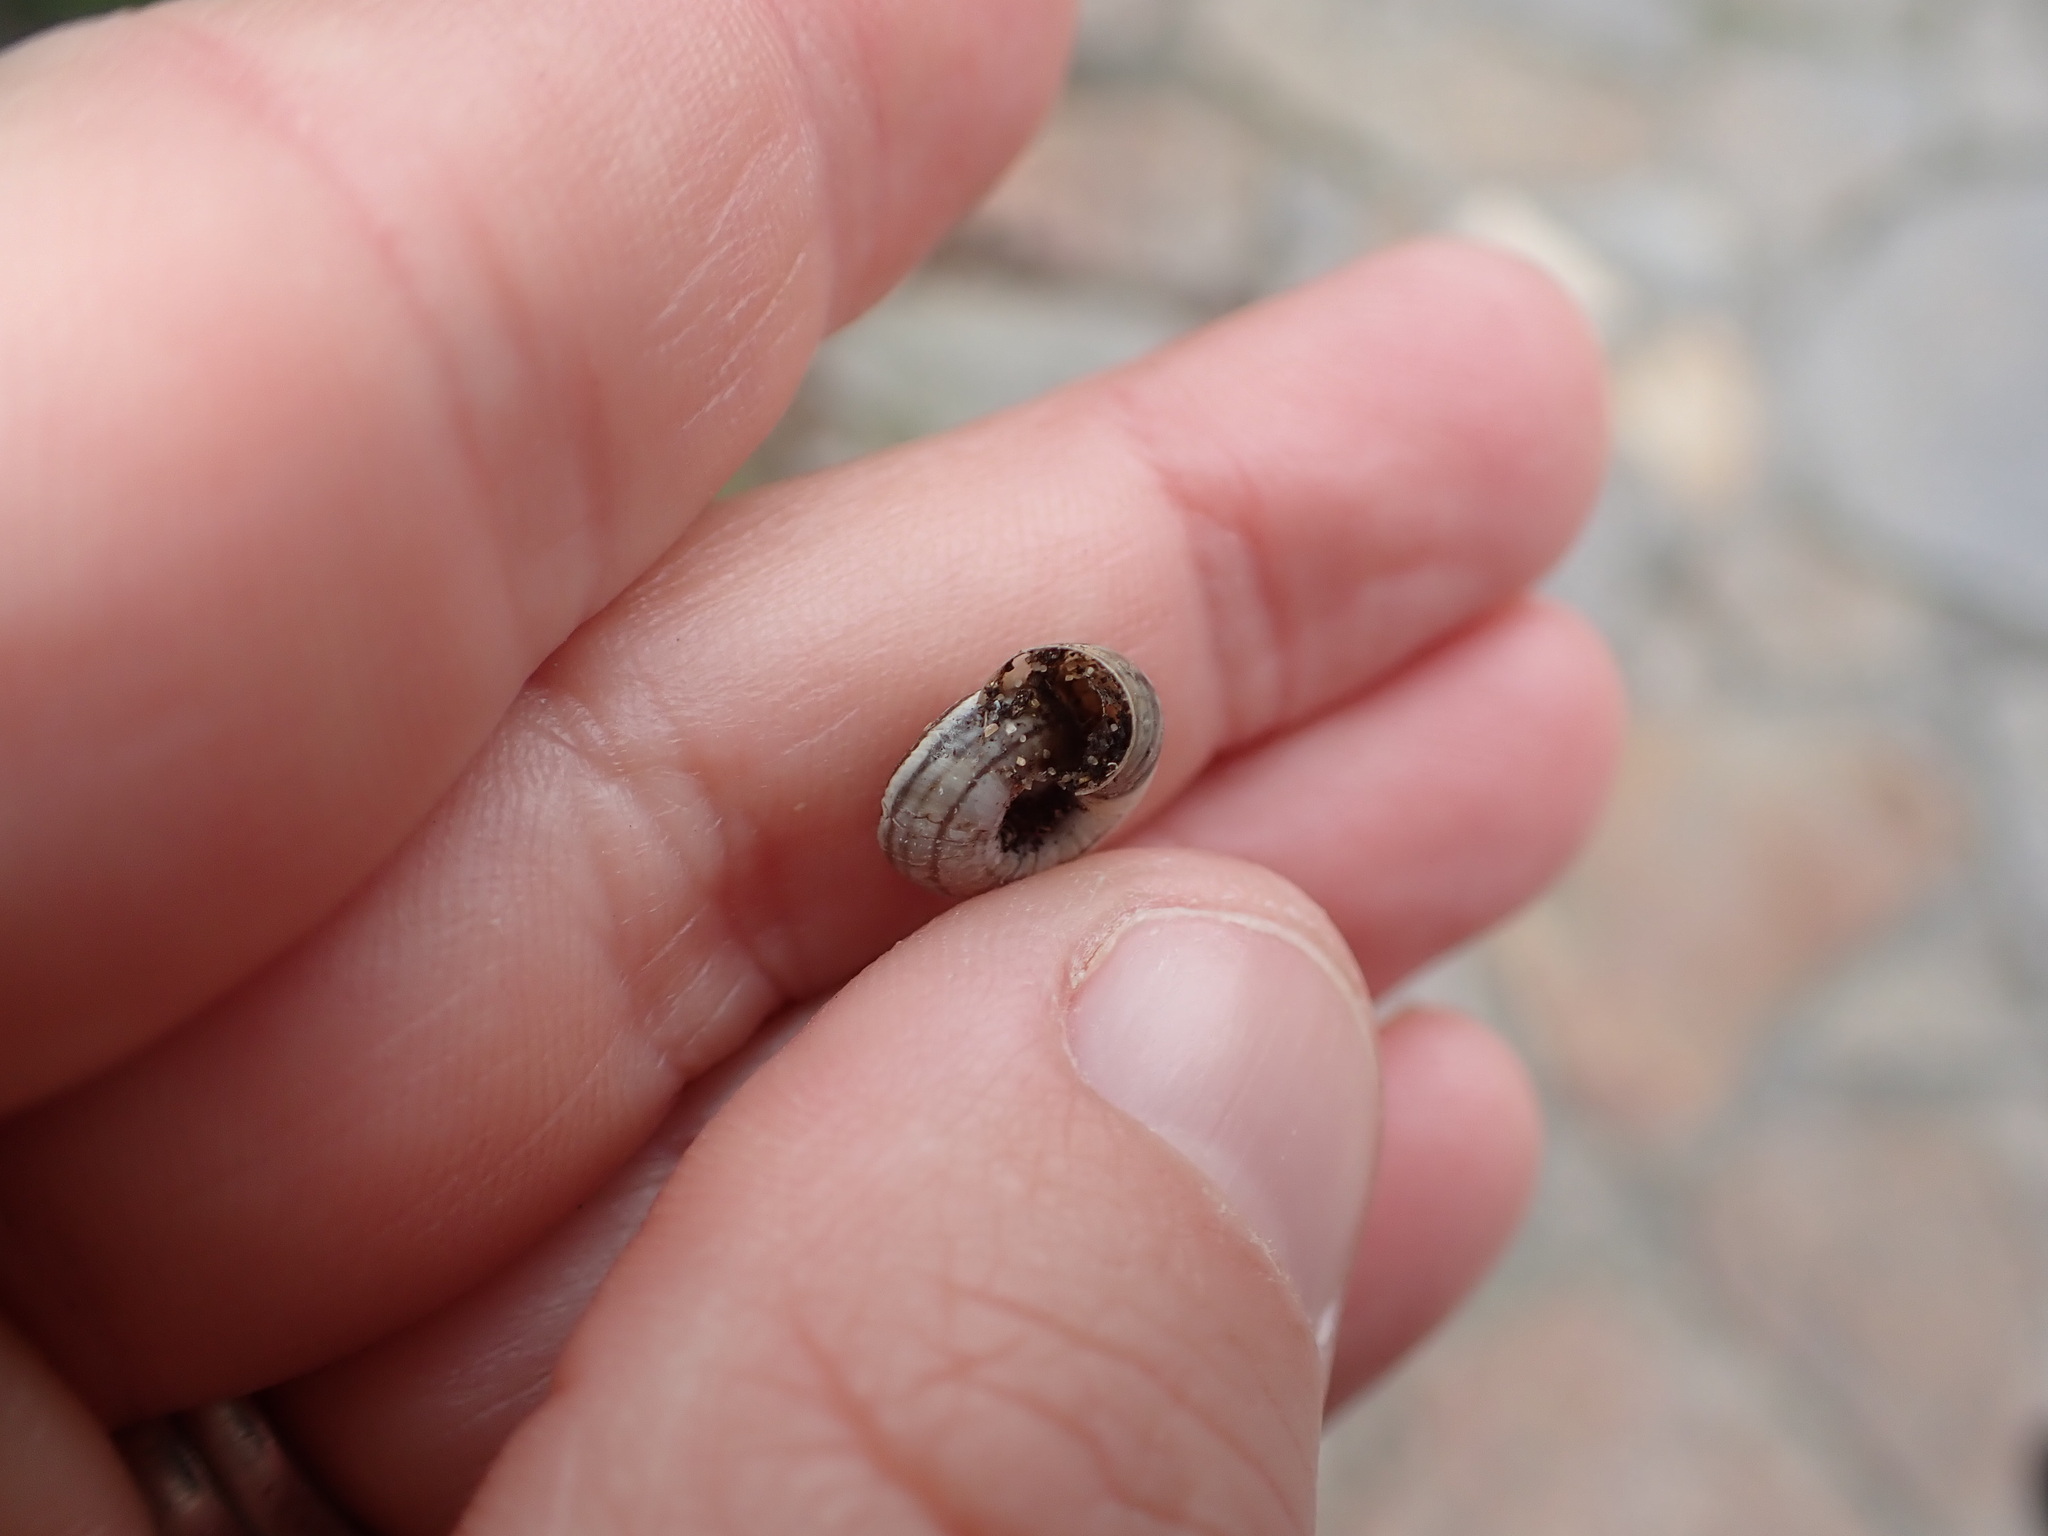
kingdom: Animalia
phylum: Mollusca
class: Gastropoda
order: Stylommatophora
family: Geomitridae
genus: Helicella
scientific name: Helicella itala
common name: Heath snail
